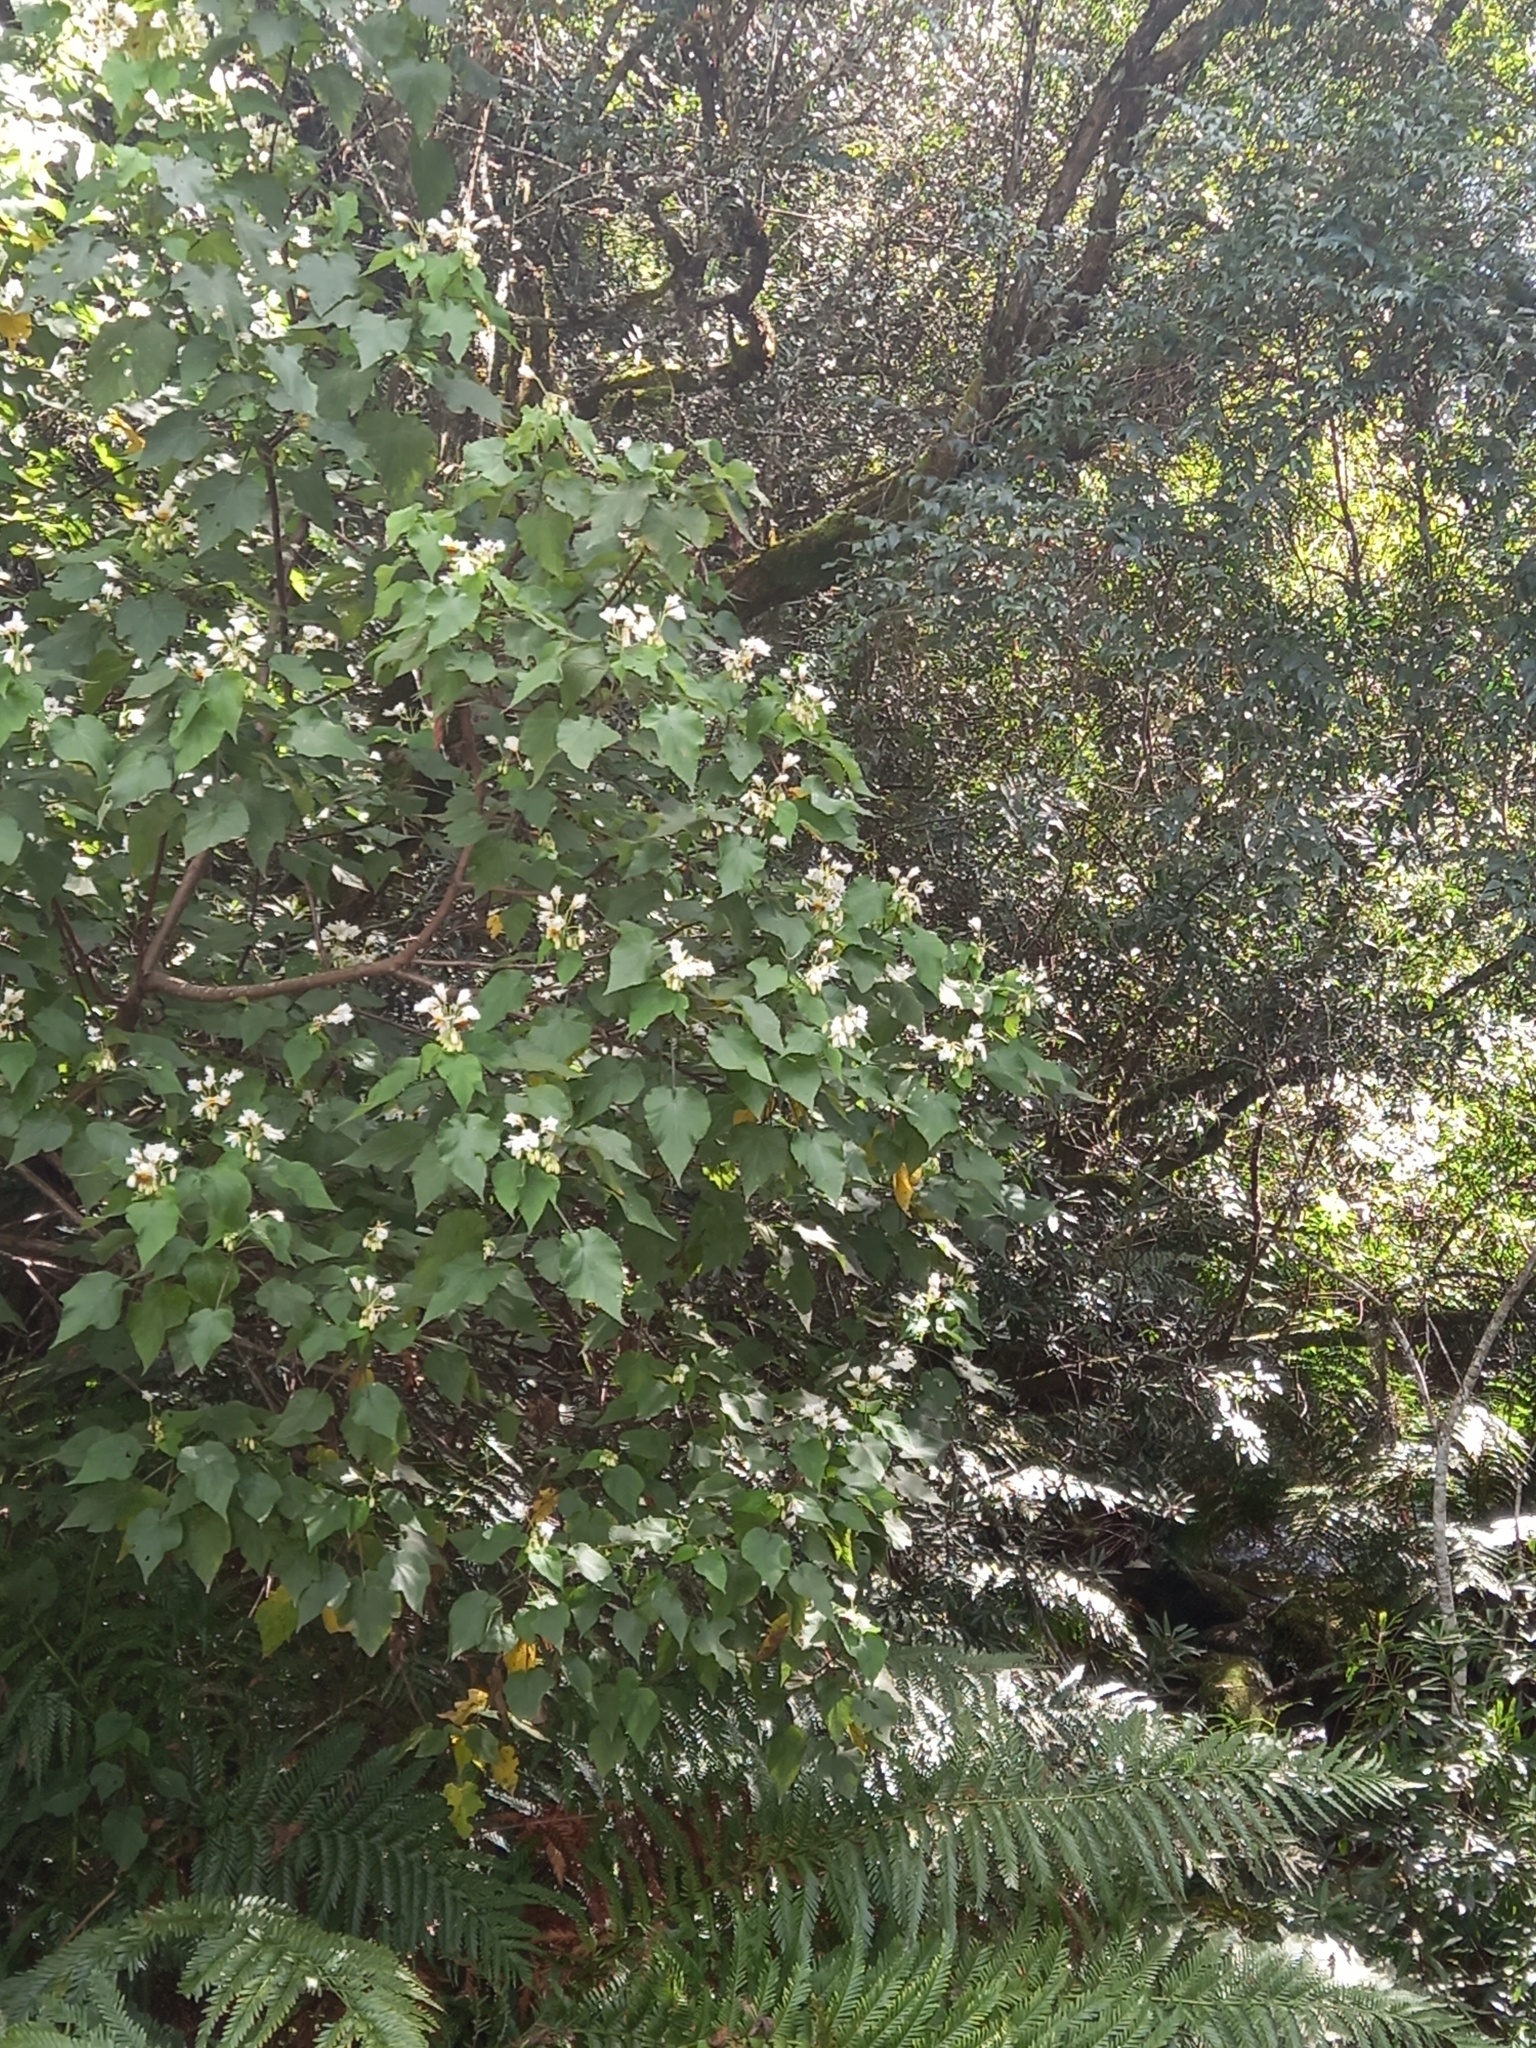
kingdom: Plantae
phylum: Tracheophyta
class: Magnoliopsida
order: Malvales
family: Malvaceae
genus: Sparrmannia
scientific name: Sparrmannia africana
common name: African-hemp
